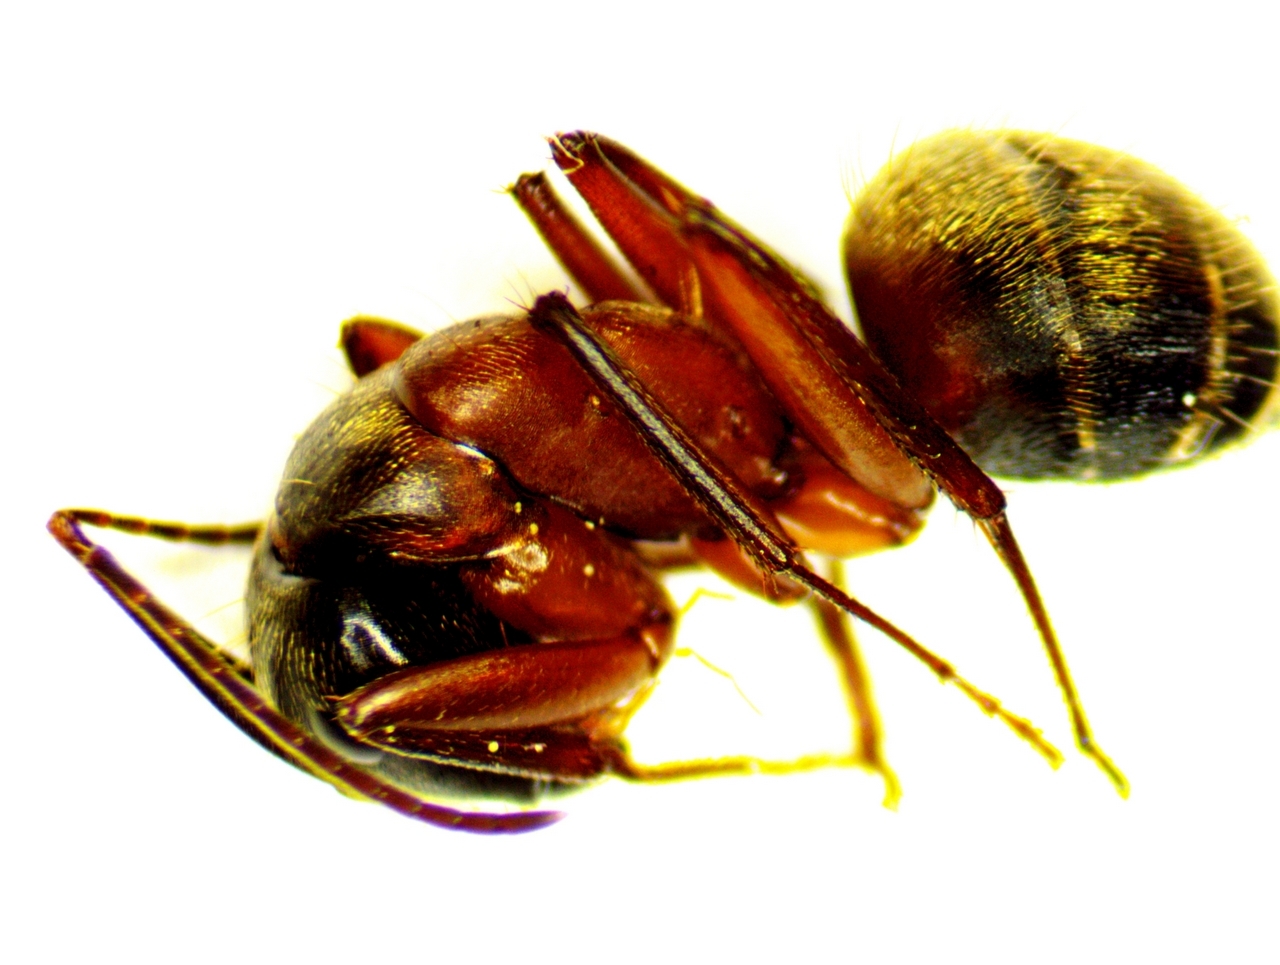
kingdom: Animalia
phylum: Arthropoda
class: Insecta
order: Hymenoptera
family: Formicidae
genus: Camponotus
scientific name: Camponotus chromaiodes
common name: Red carpenter ant
